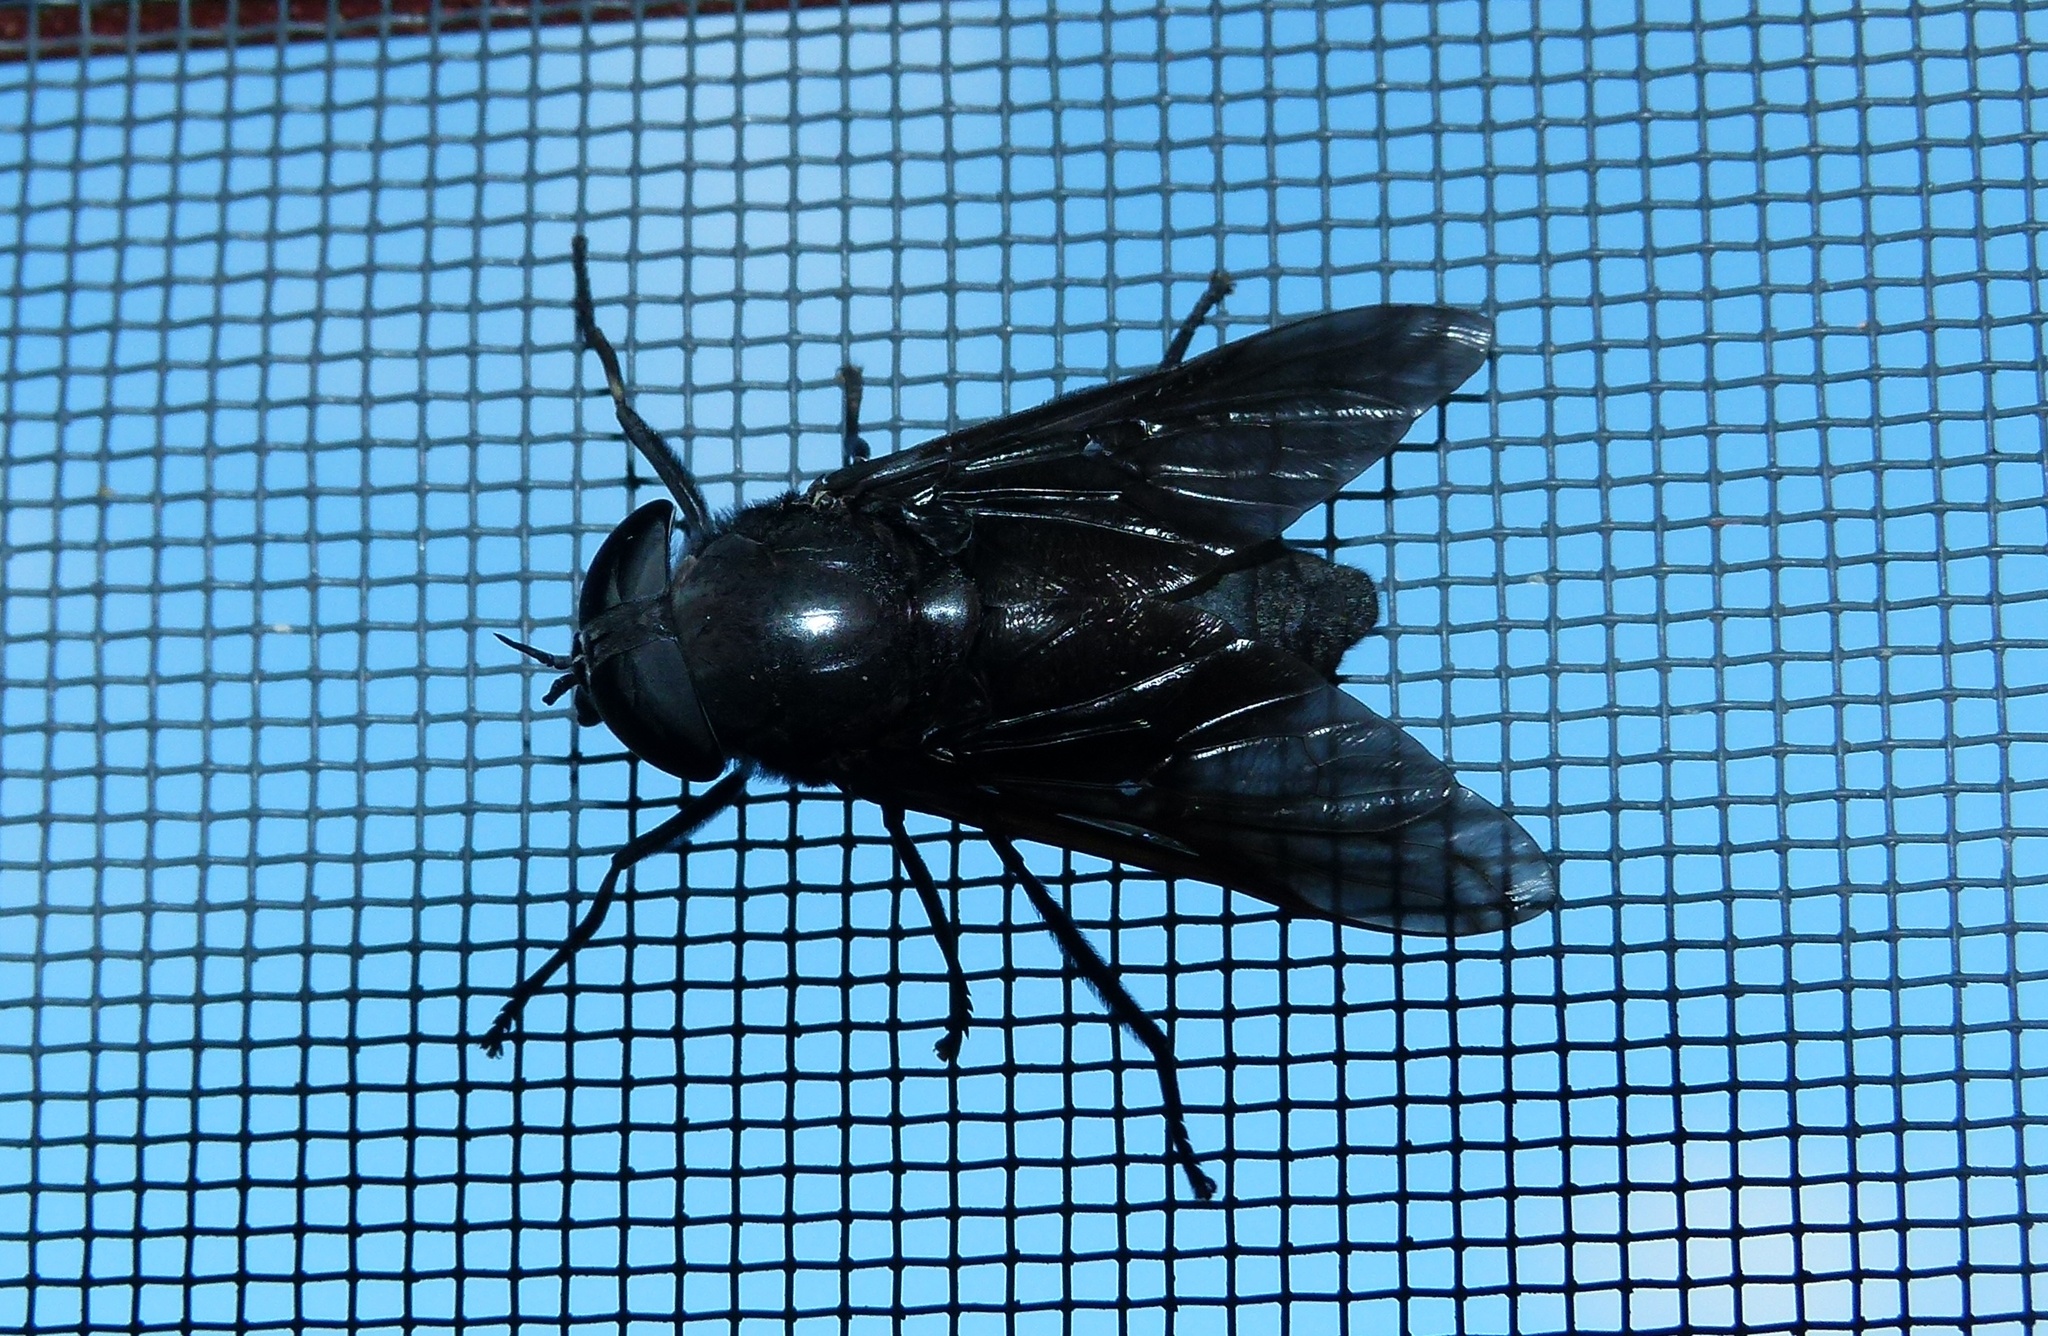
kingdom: Animalia
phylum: Arthropoda
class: Insecta
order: Diptera
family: Tabanidae
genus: Tabanus
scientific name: Tabanus atratus
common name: Black horse fly
